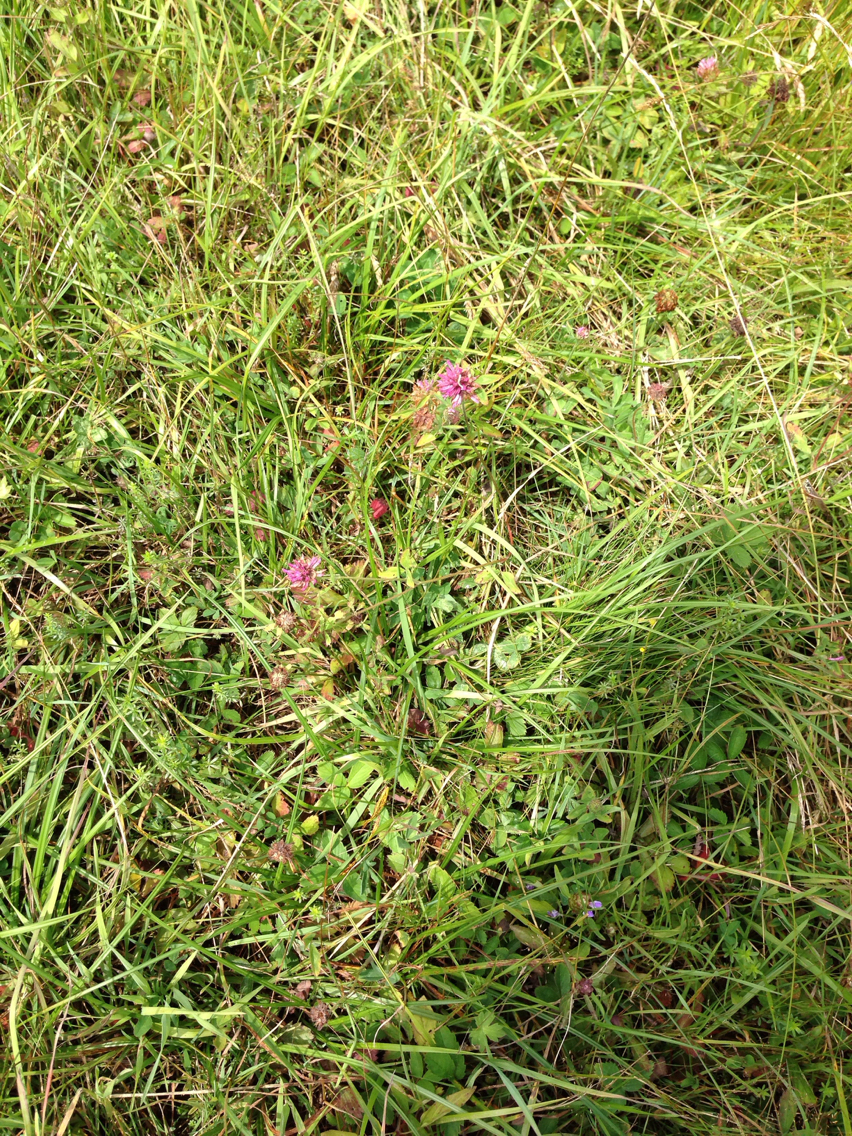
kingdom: Plantae
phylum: Tracheophyta
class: Magnoliopsida
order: Fabales
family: Fabaceae
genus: Trifolium
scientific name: Trifolium pratense
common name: Red clover
